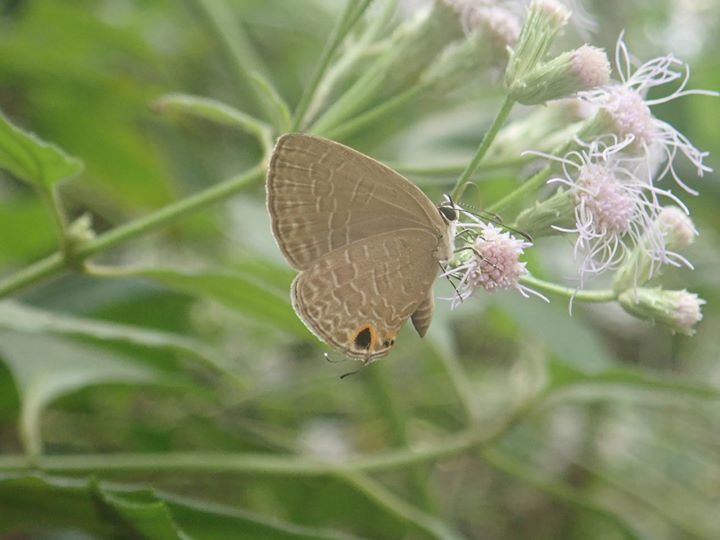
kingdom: Animalia
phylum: Arthropoda
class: Insecta
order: Lepidoptera
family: Lycaenidae
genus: Jamides
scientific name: Jamides bochus
